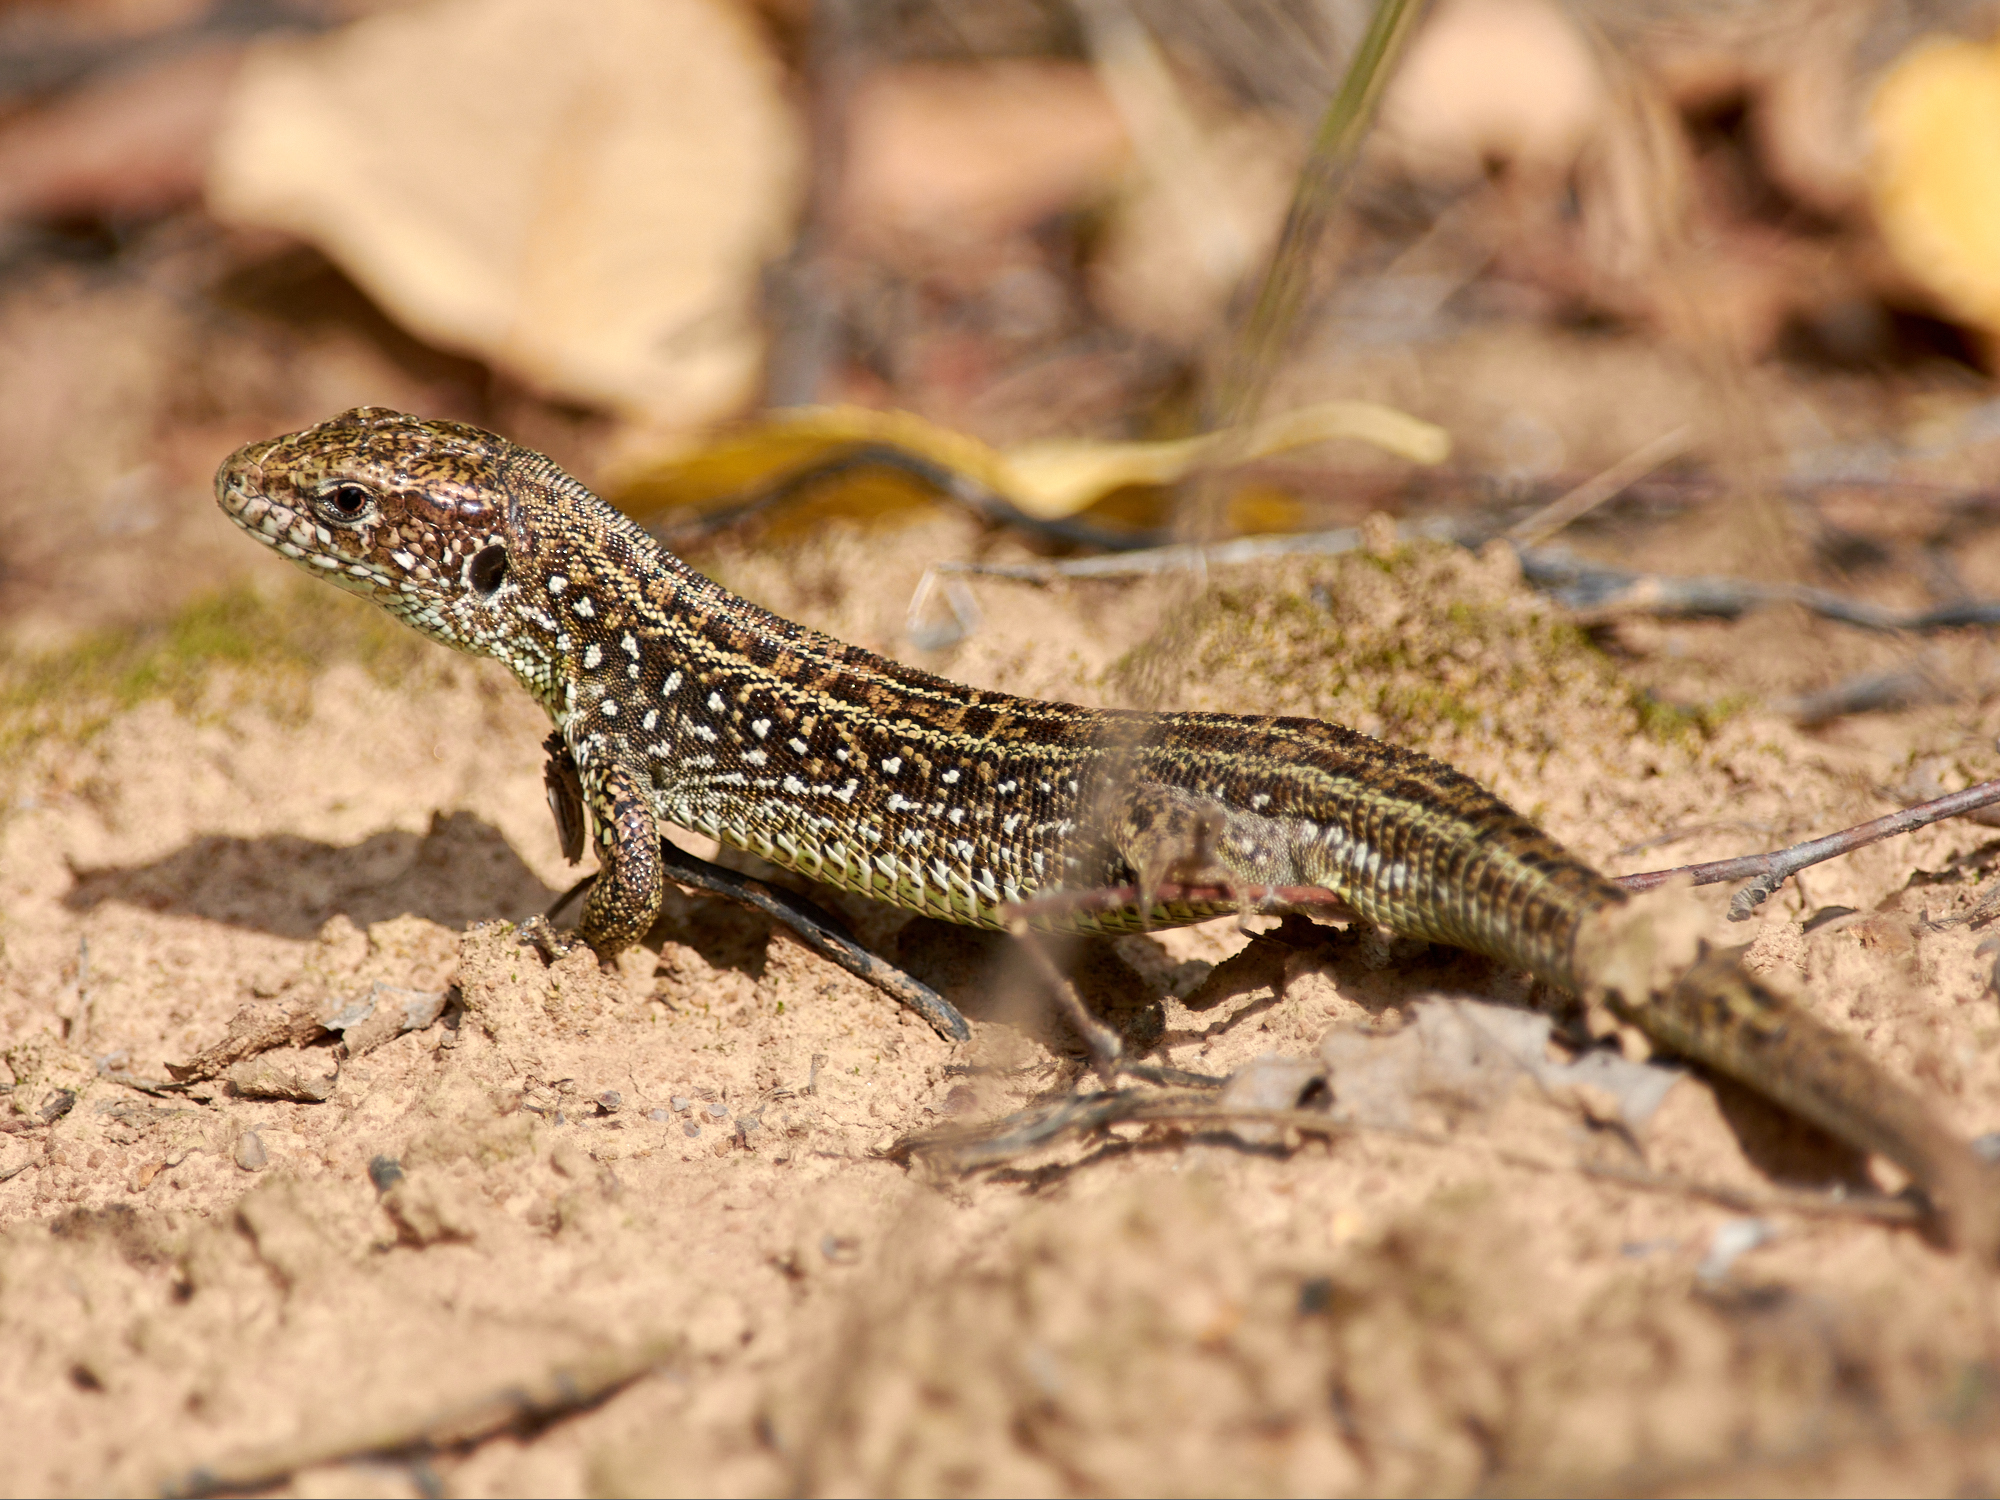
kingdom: Animalia
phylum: Chordata
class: Squamata
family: Lacertidae
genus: Lacerta
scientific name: Lacerta agilis
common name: Sand lizard
